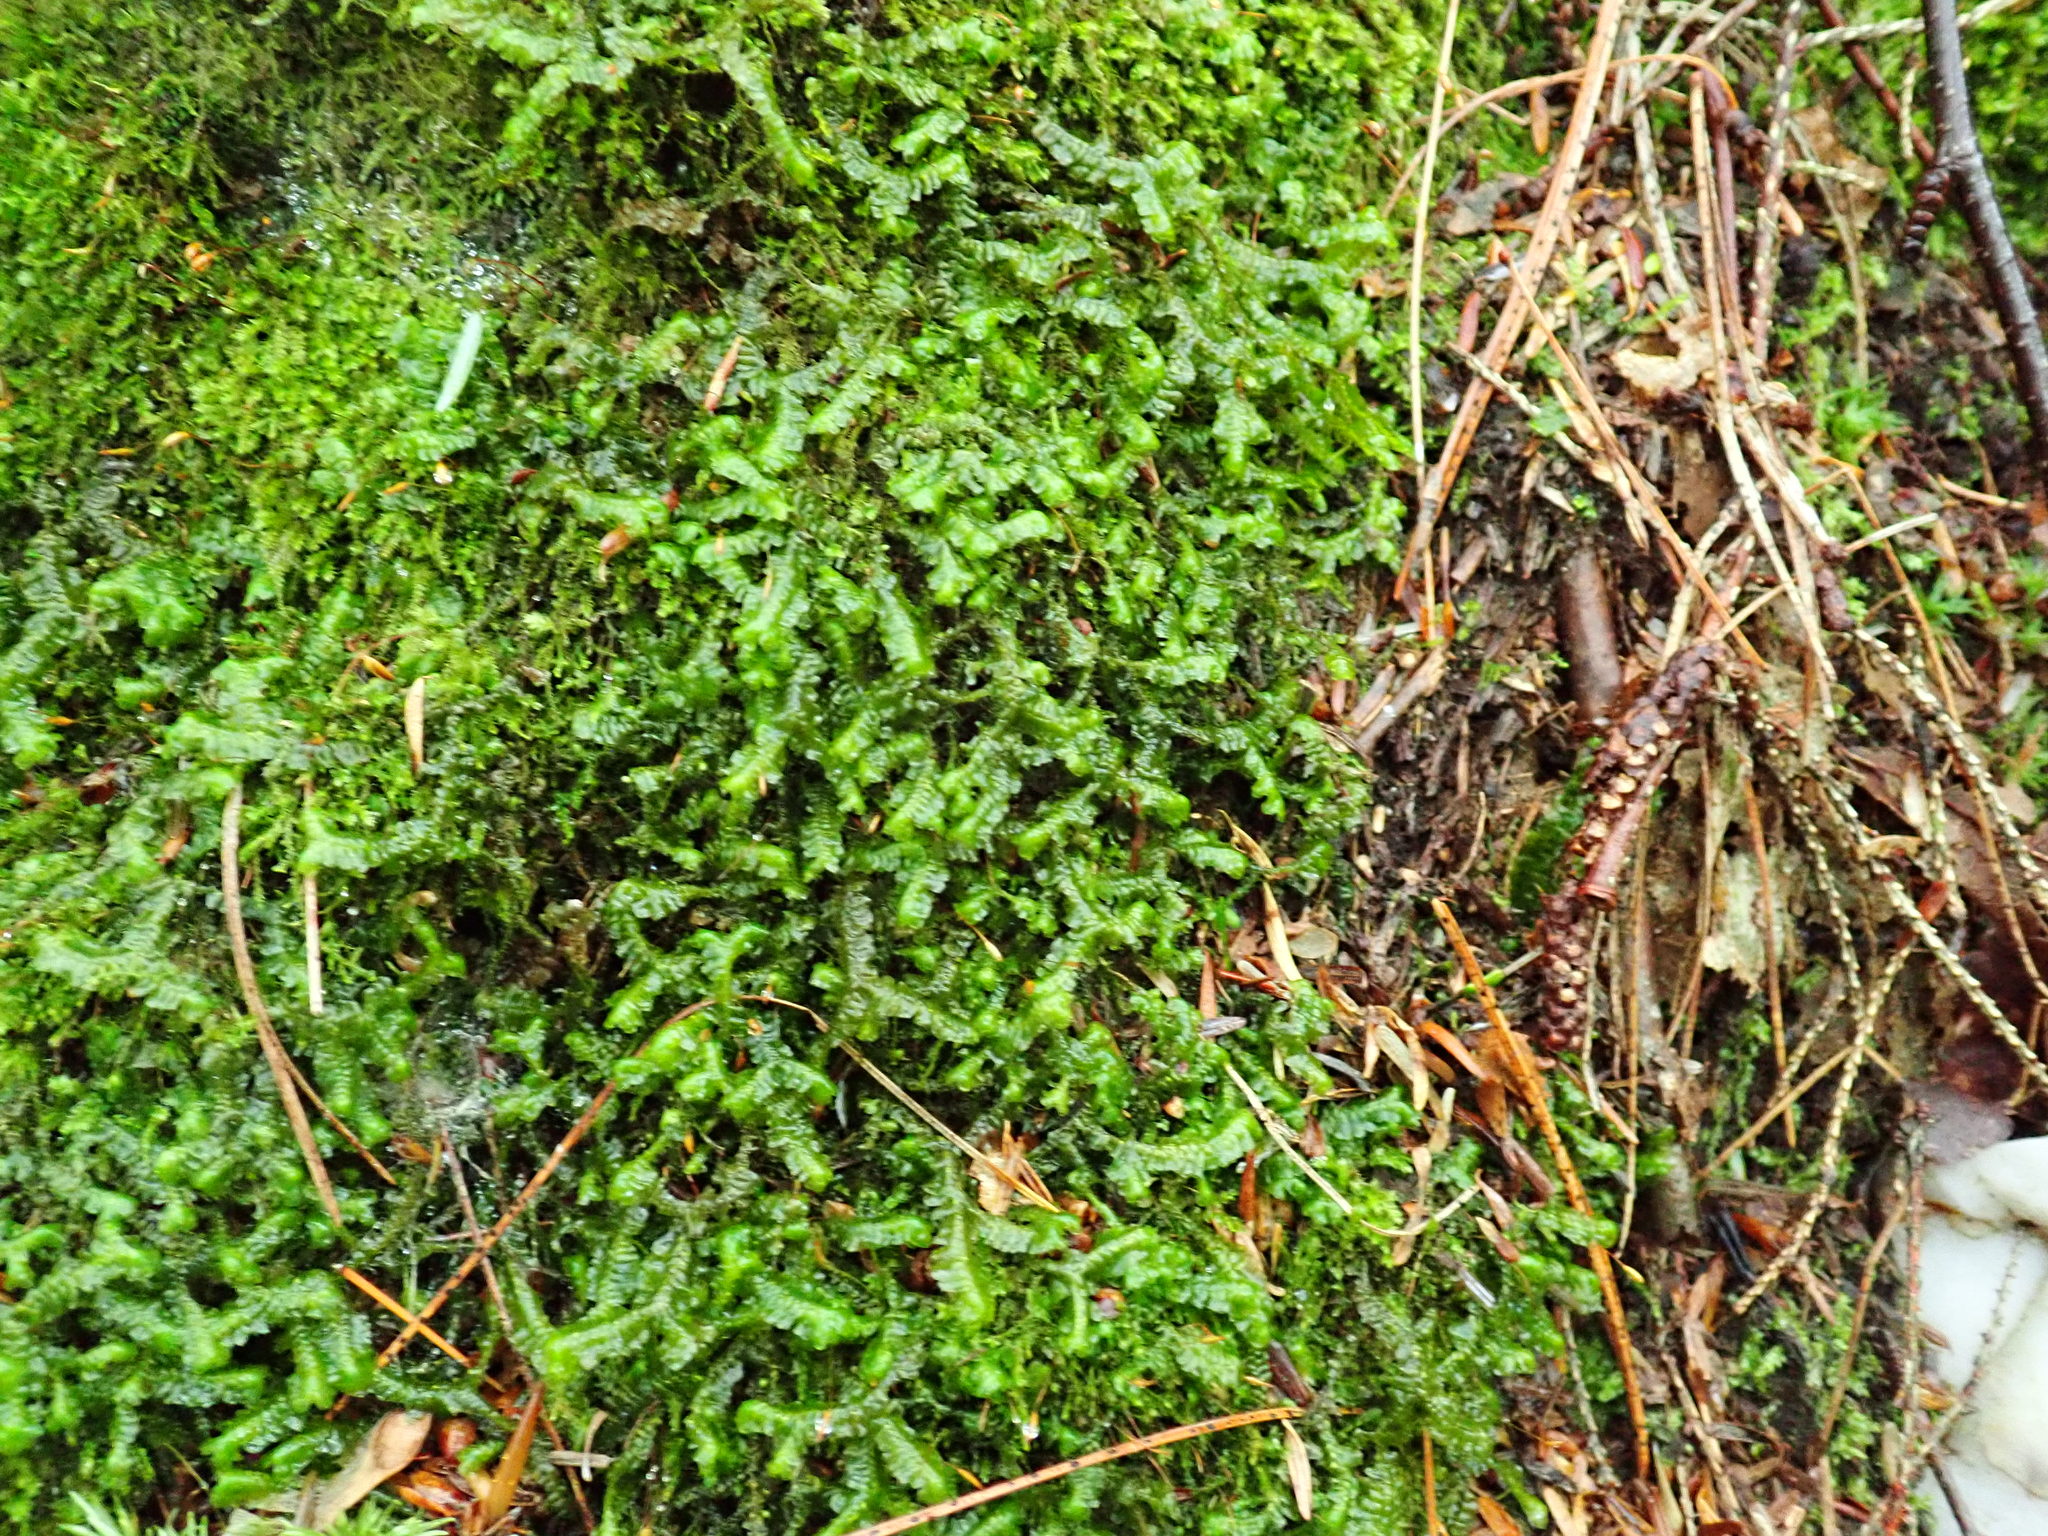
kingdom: Plantae
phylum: Marchantiophyta
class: Jungermanniopsida
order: Jungermanniales
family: Lepidoziaceae
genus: Bazzania
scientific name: Bazzania trilobata
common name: Three-lobed whipwort
